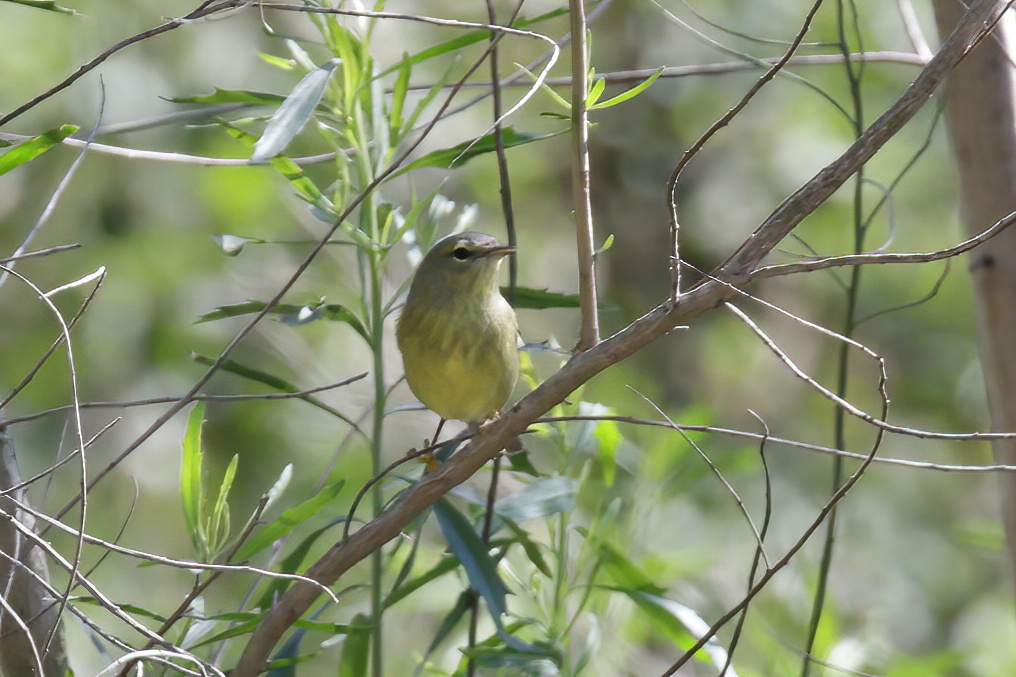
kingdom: Animalia
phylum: Chordata
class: Aves
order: Passeriformes
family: Parulidae
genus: Leiothlypis
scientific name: Leiothlypis celata
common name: Orange-crowned warbler
